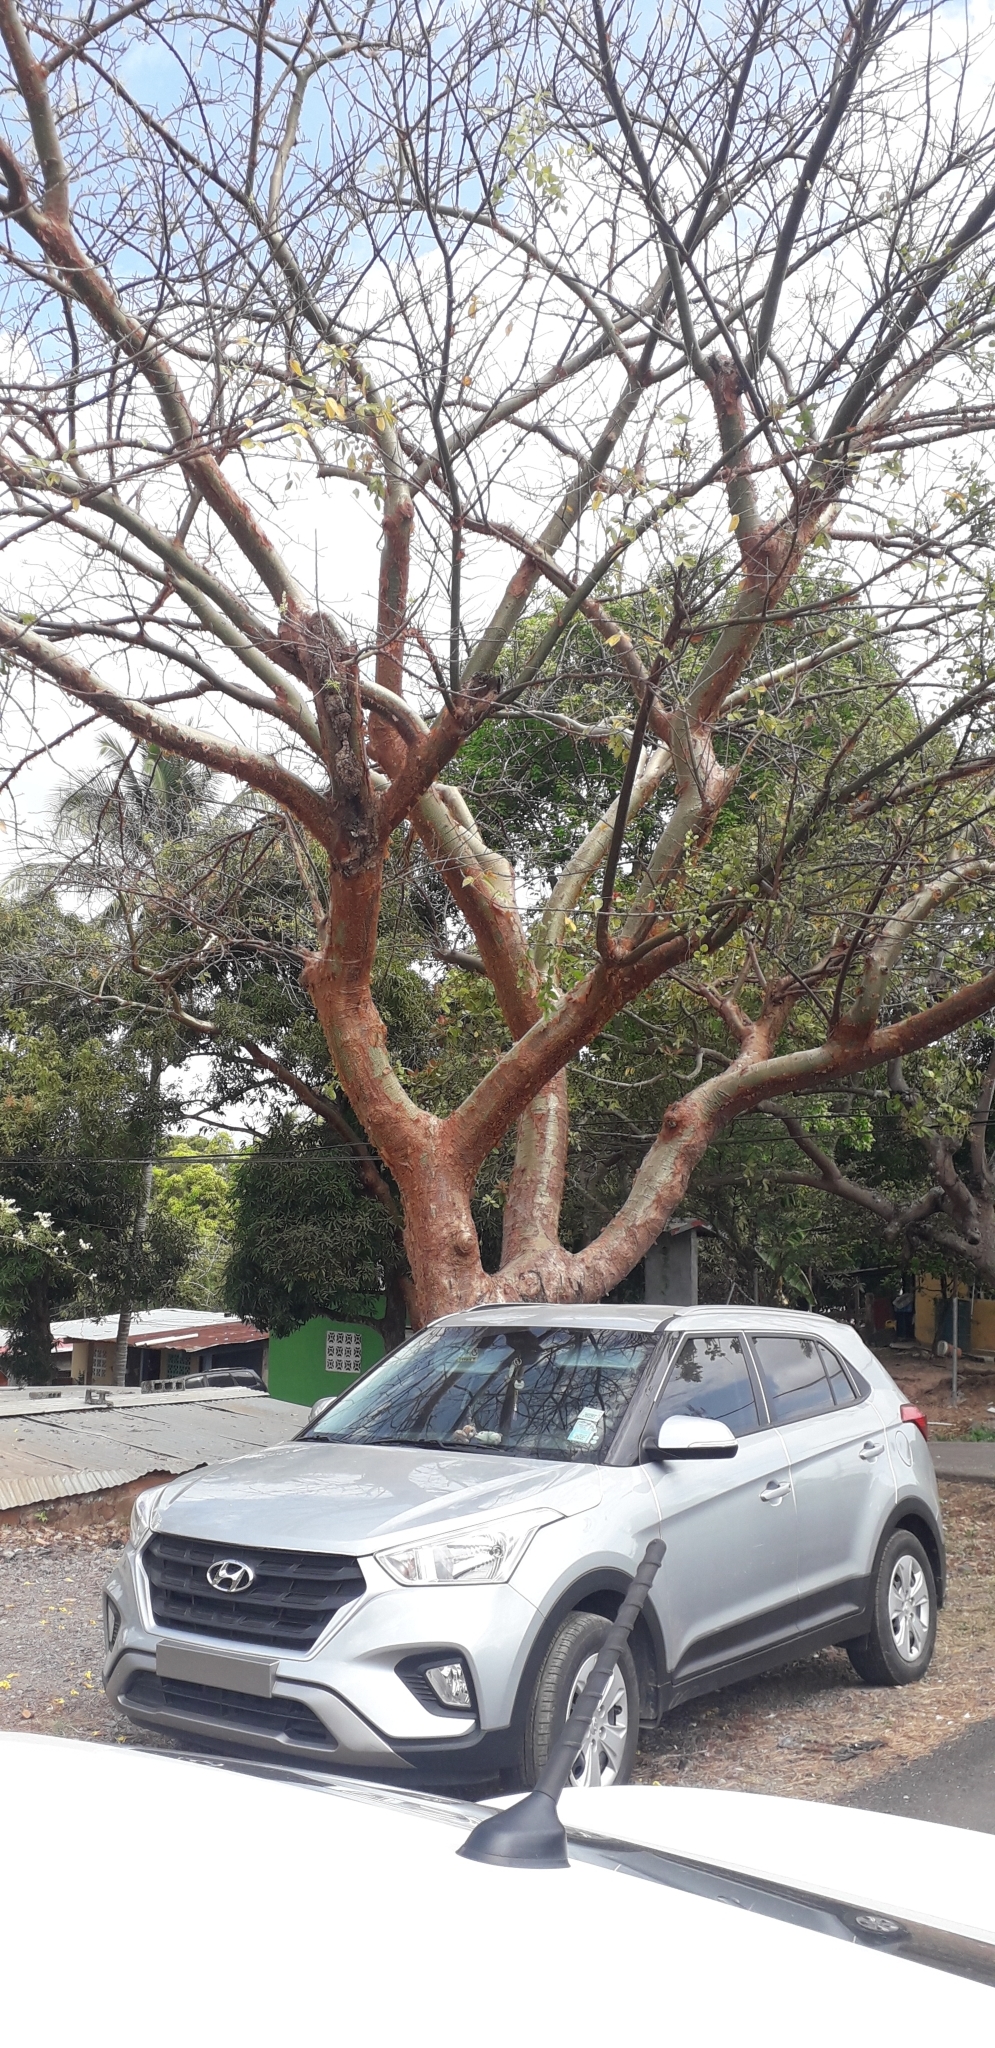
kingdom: Plantae
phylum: Tracheophyta
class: Magnoliopsida
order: Sapindales
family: Burseraceae
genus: Bursera
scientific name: Bursera simaruba
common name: Turpentine tree
